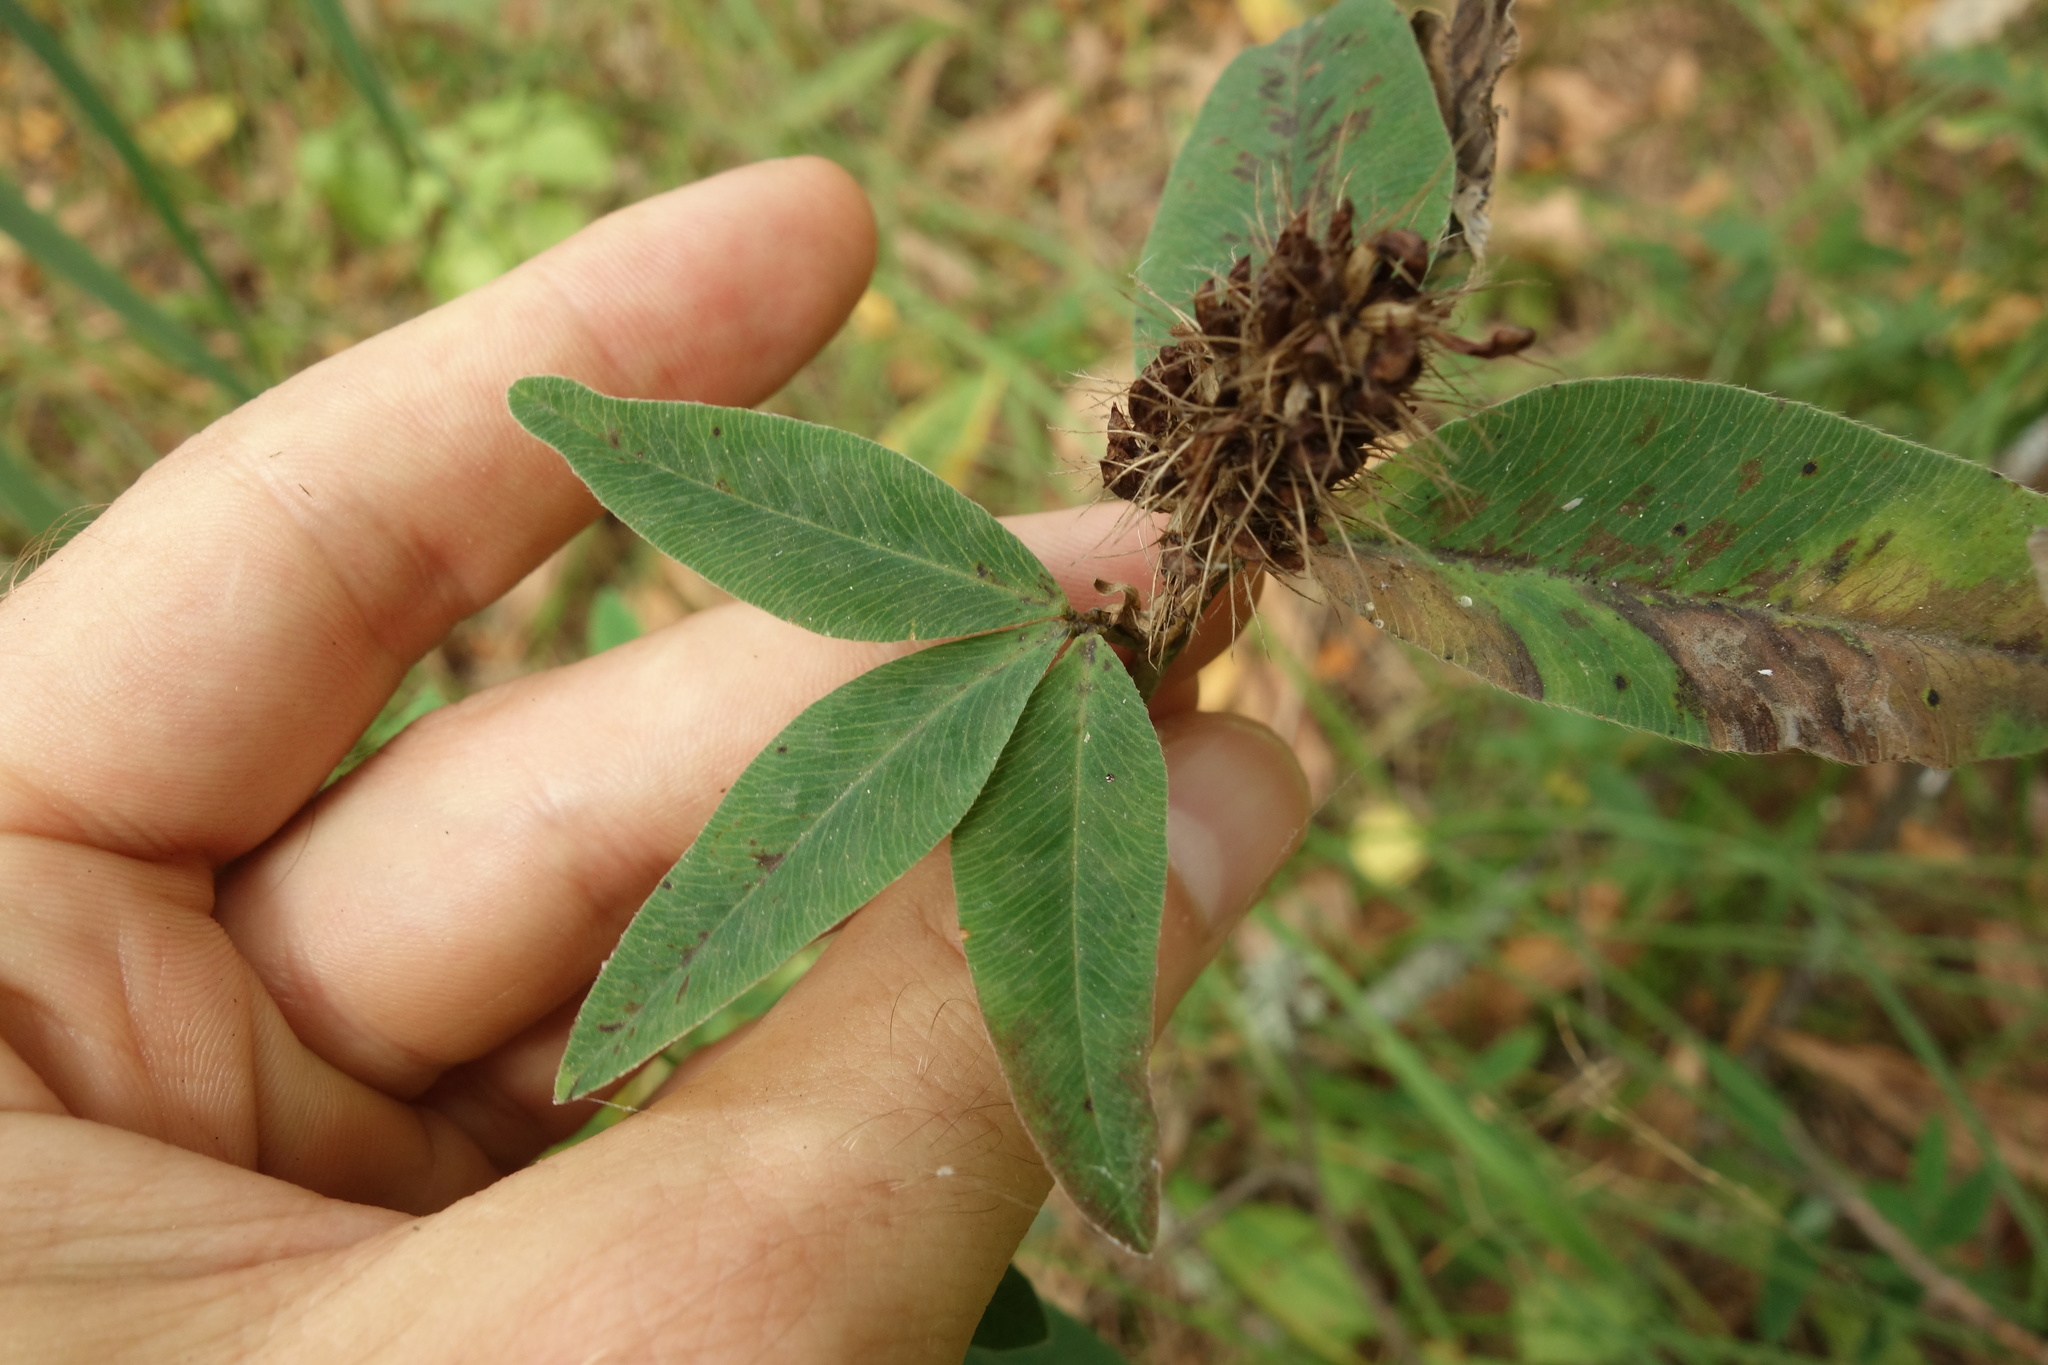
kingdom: Plantae
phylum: Tracheophyta
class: Magnoliopsida
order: Fabales
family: Fabaceae
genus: Trifolium
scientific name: Trifolium medium
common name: Zigzag clover
